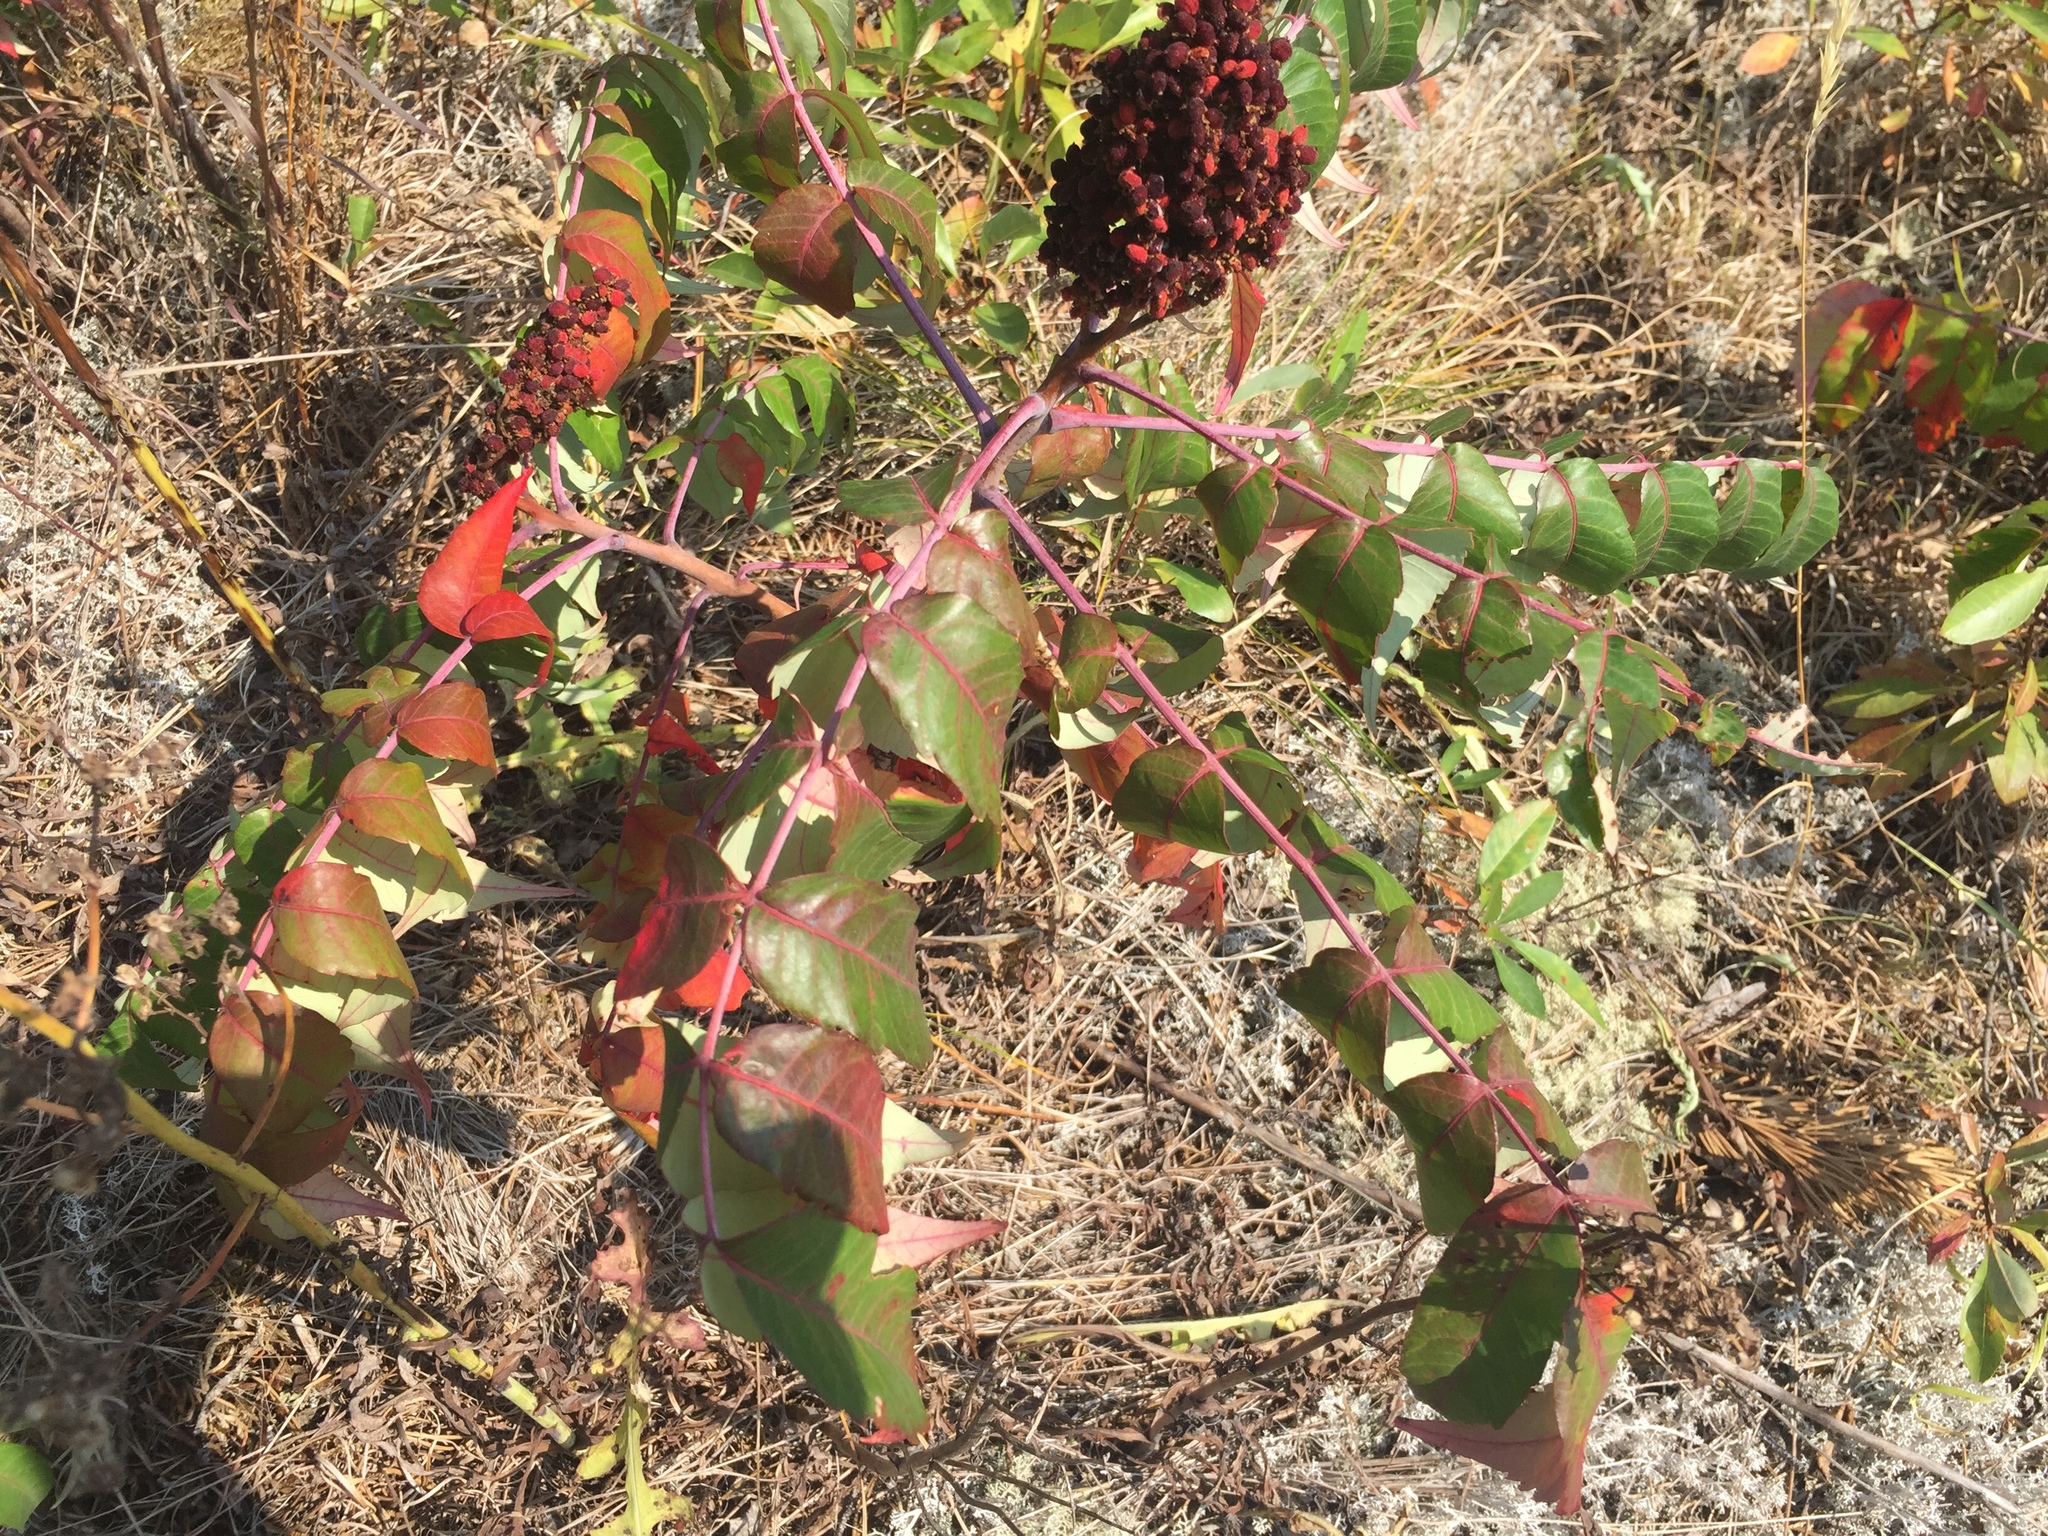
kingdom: Plantae
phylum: Tracheophyta
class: Magnoliopsida
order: Sapindales
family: Anacardiaceae
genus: Rhus
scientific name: Rhus glabra
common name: Scarlet sumac
